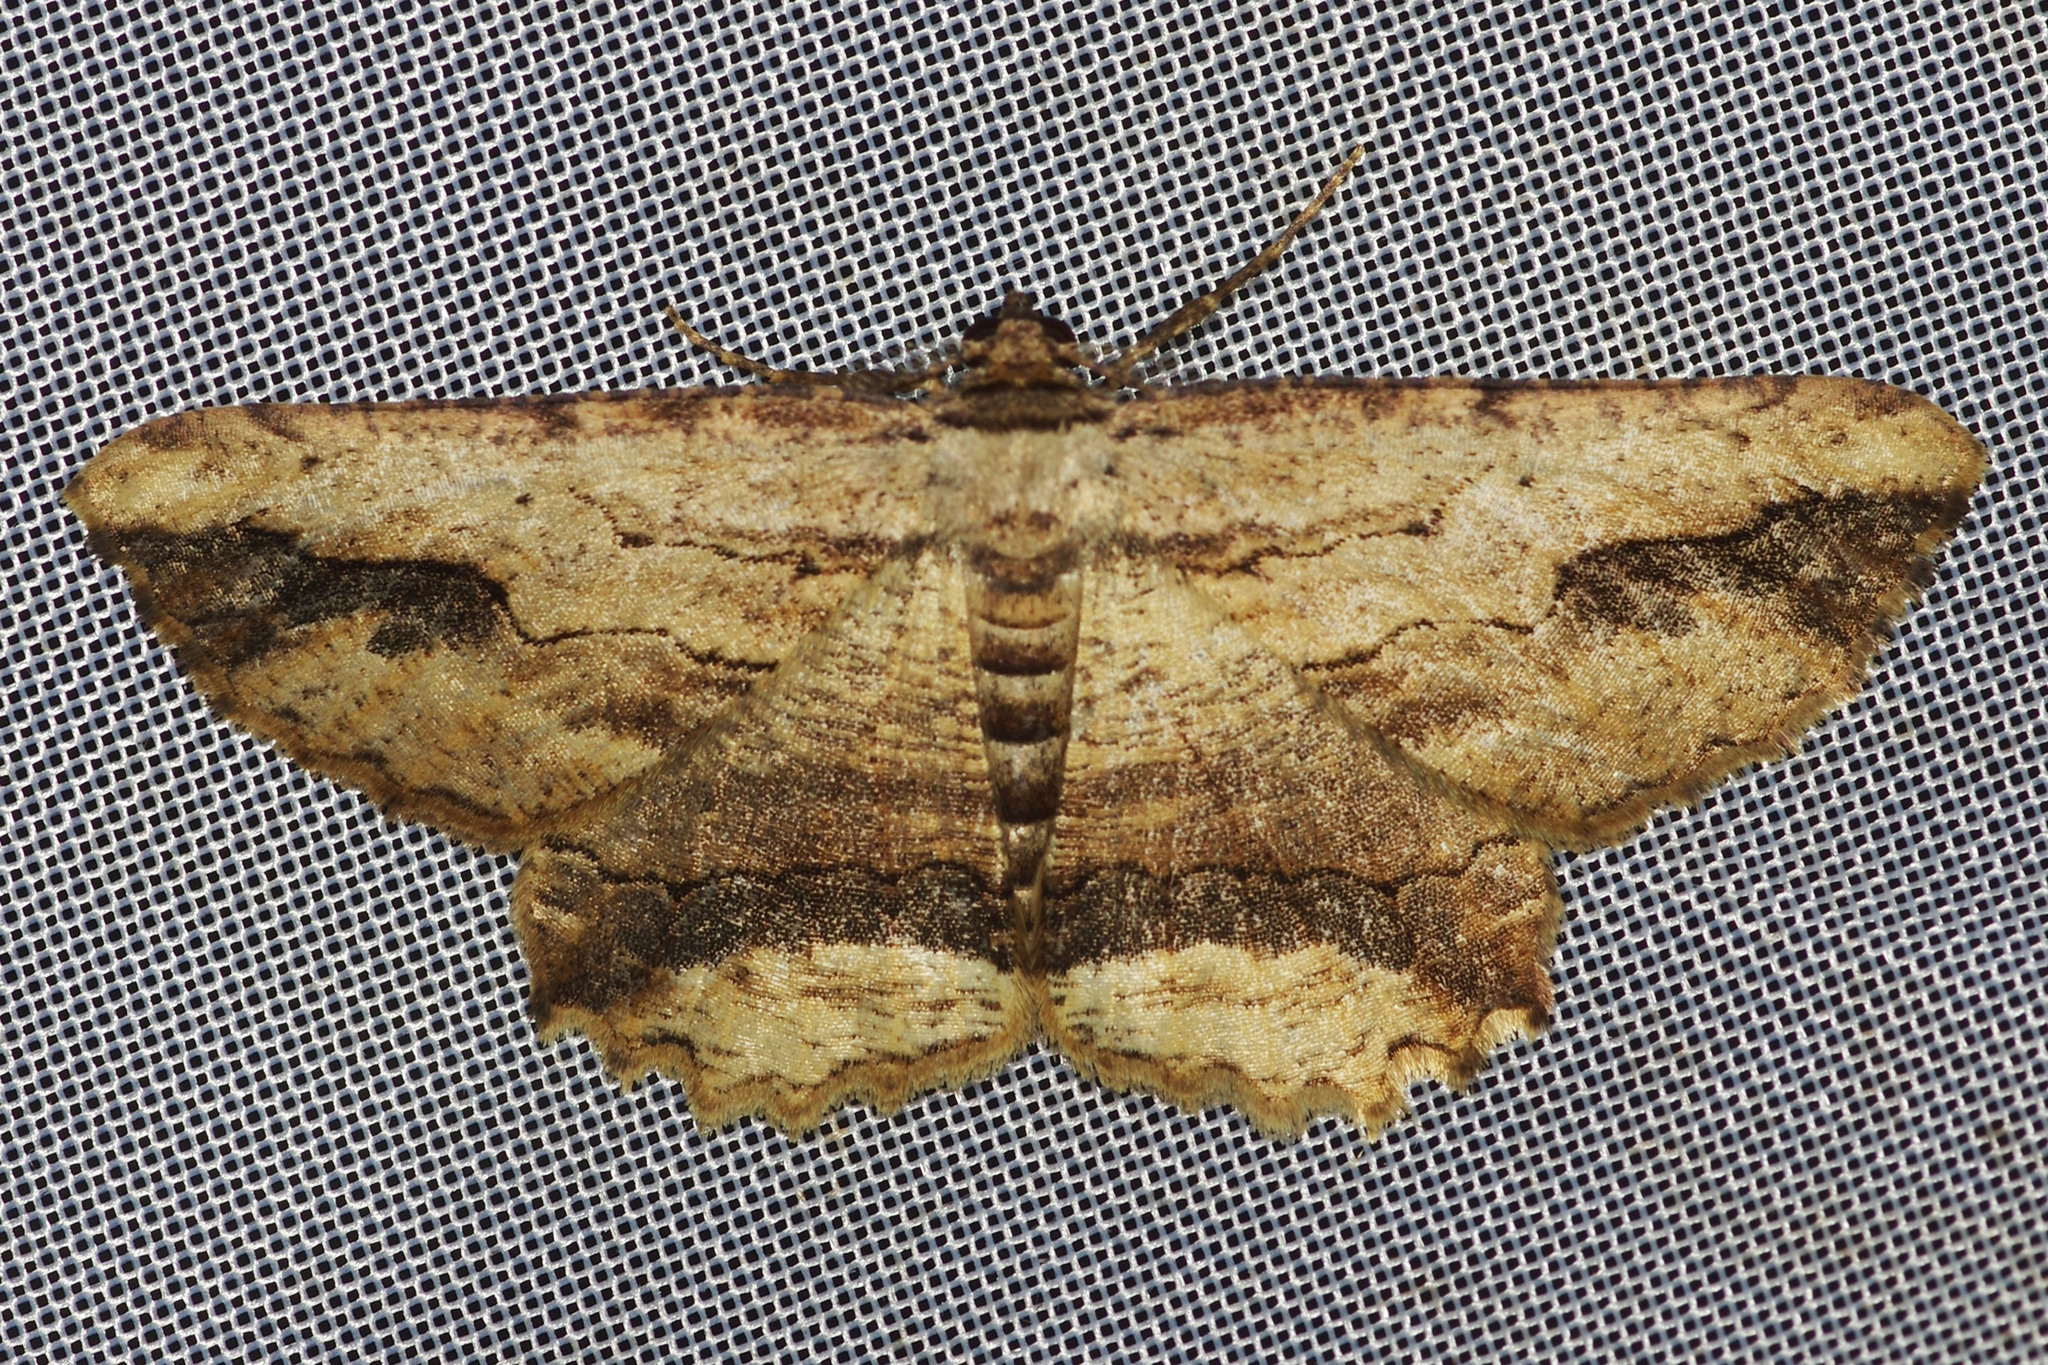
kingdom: Animalia
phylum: Arthropoda
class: Insecta
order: Lepidoptera
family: Geometridae
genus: Menophra
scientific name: Menophra abruptaria
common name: Waved umber
